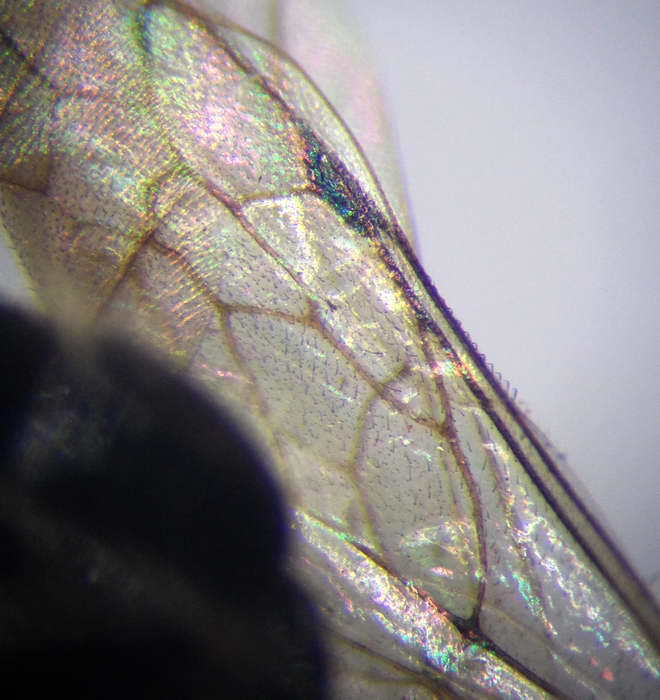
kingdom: Animalia
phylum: Arthropoda
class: Insecta
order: Hymenoptera
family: Mutillidae
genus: Smicromyrme
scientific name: Smicromyrme rufipes
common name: Small velvet ant
